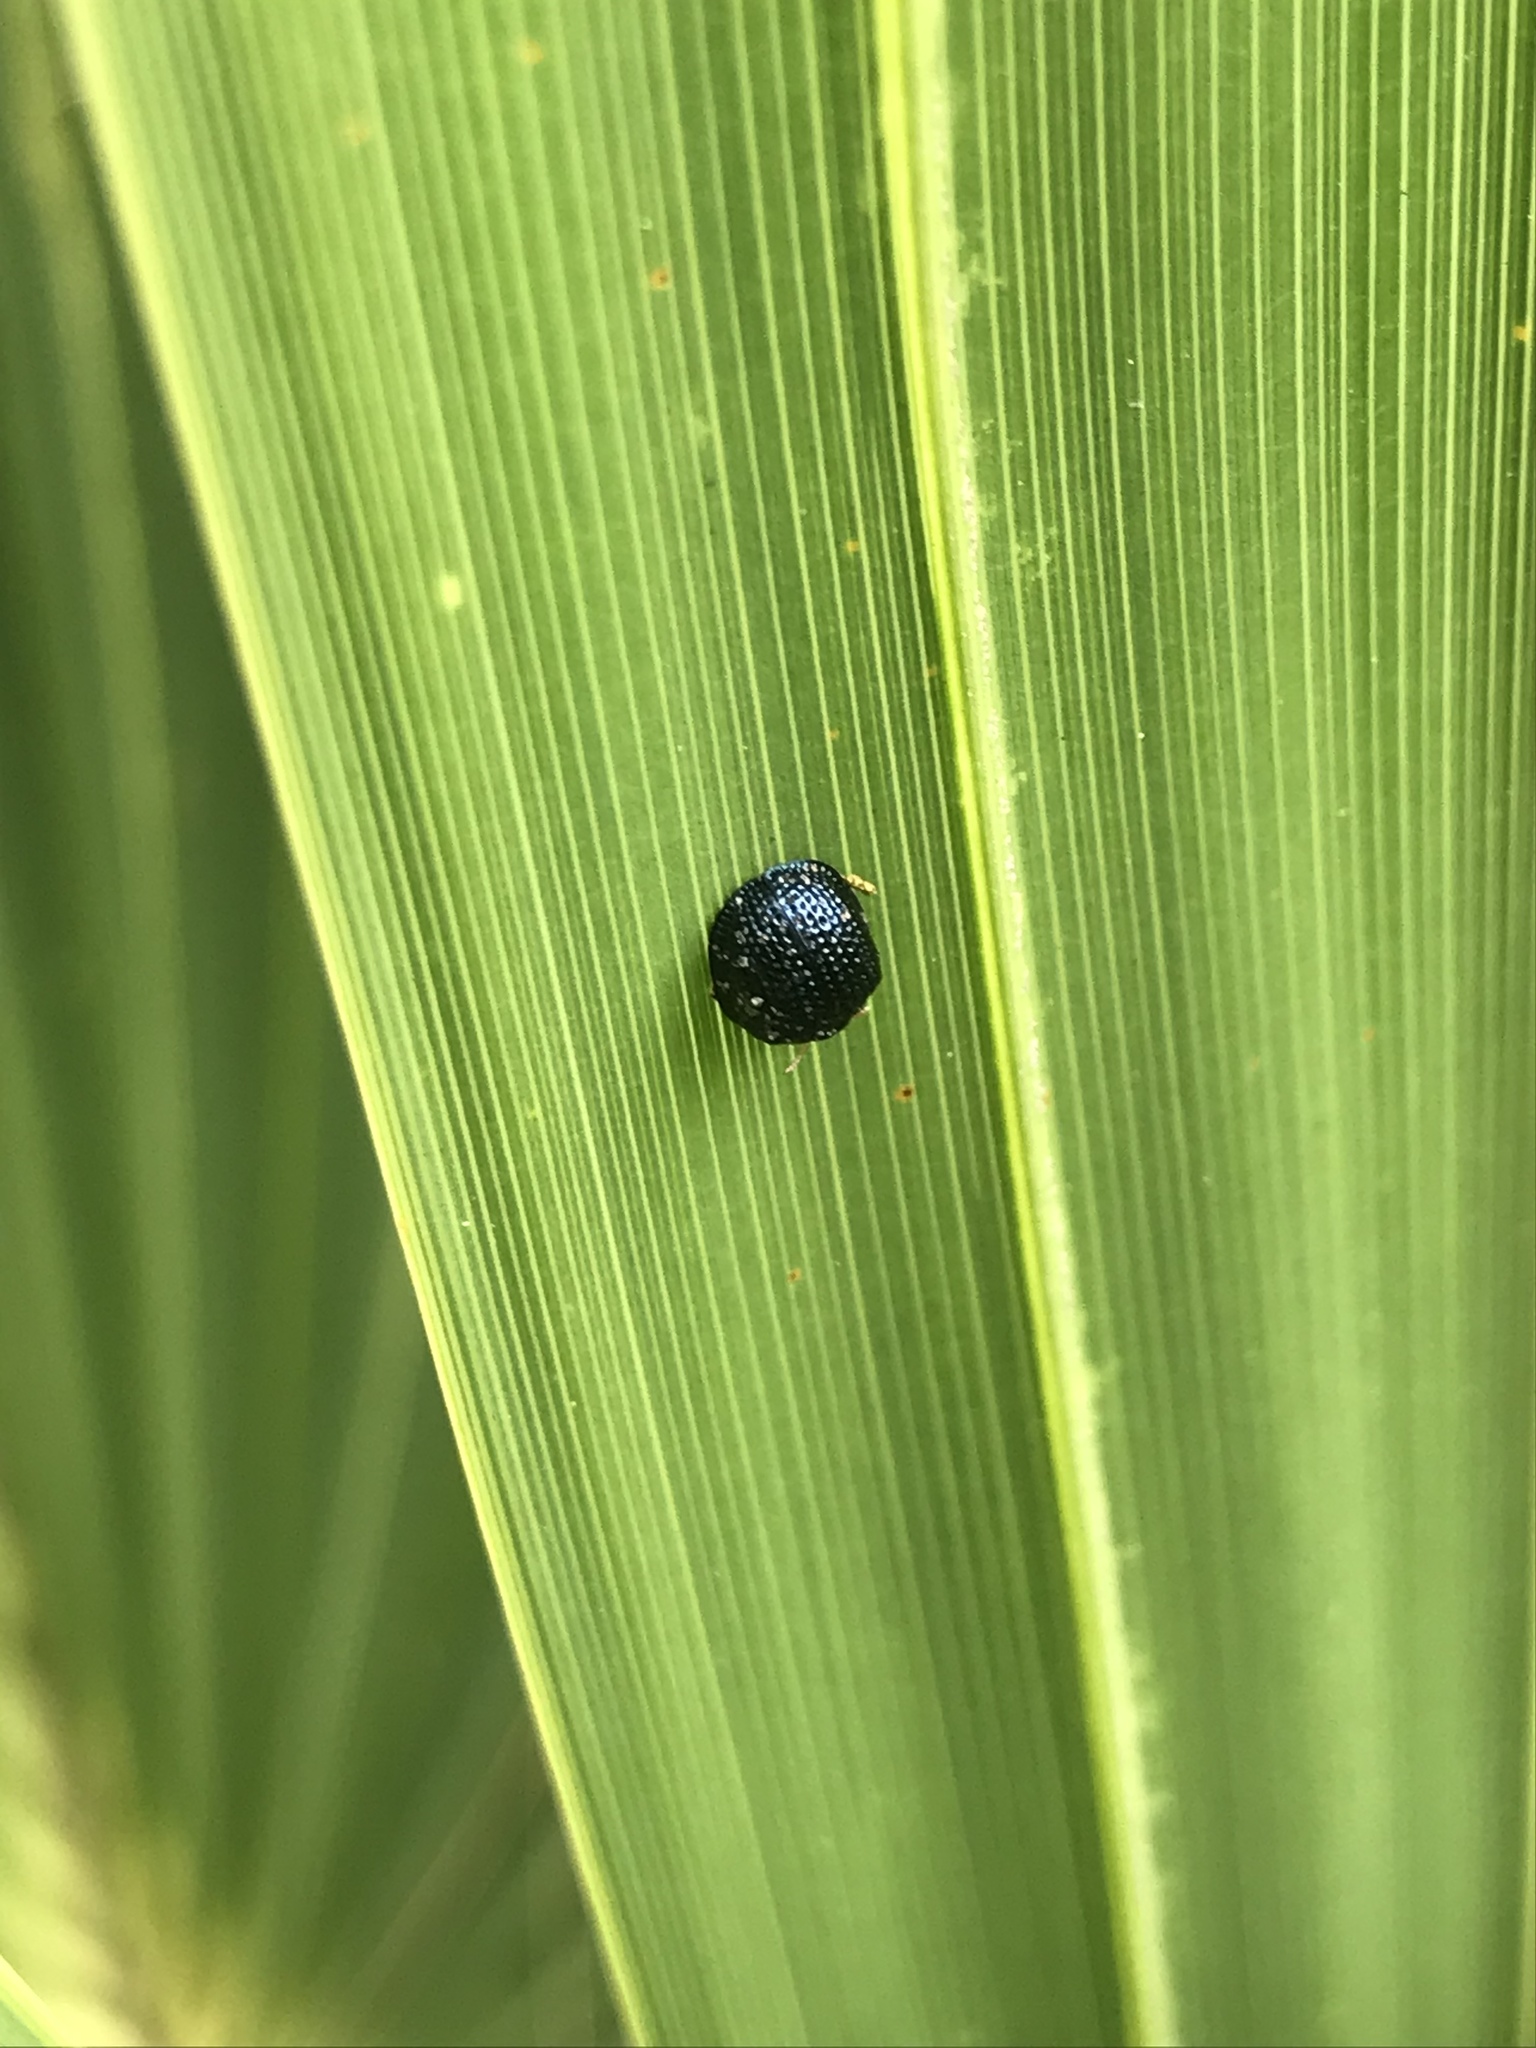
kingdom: Animalia
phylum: Arthropoda
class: Insecta
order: Coleoptera
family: Chrysomelidae
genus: Hemisphaerota
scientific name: Hemisphaerota cyanea
